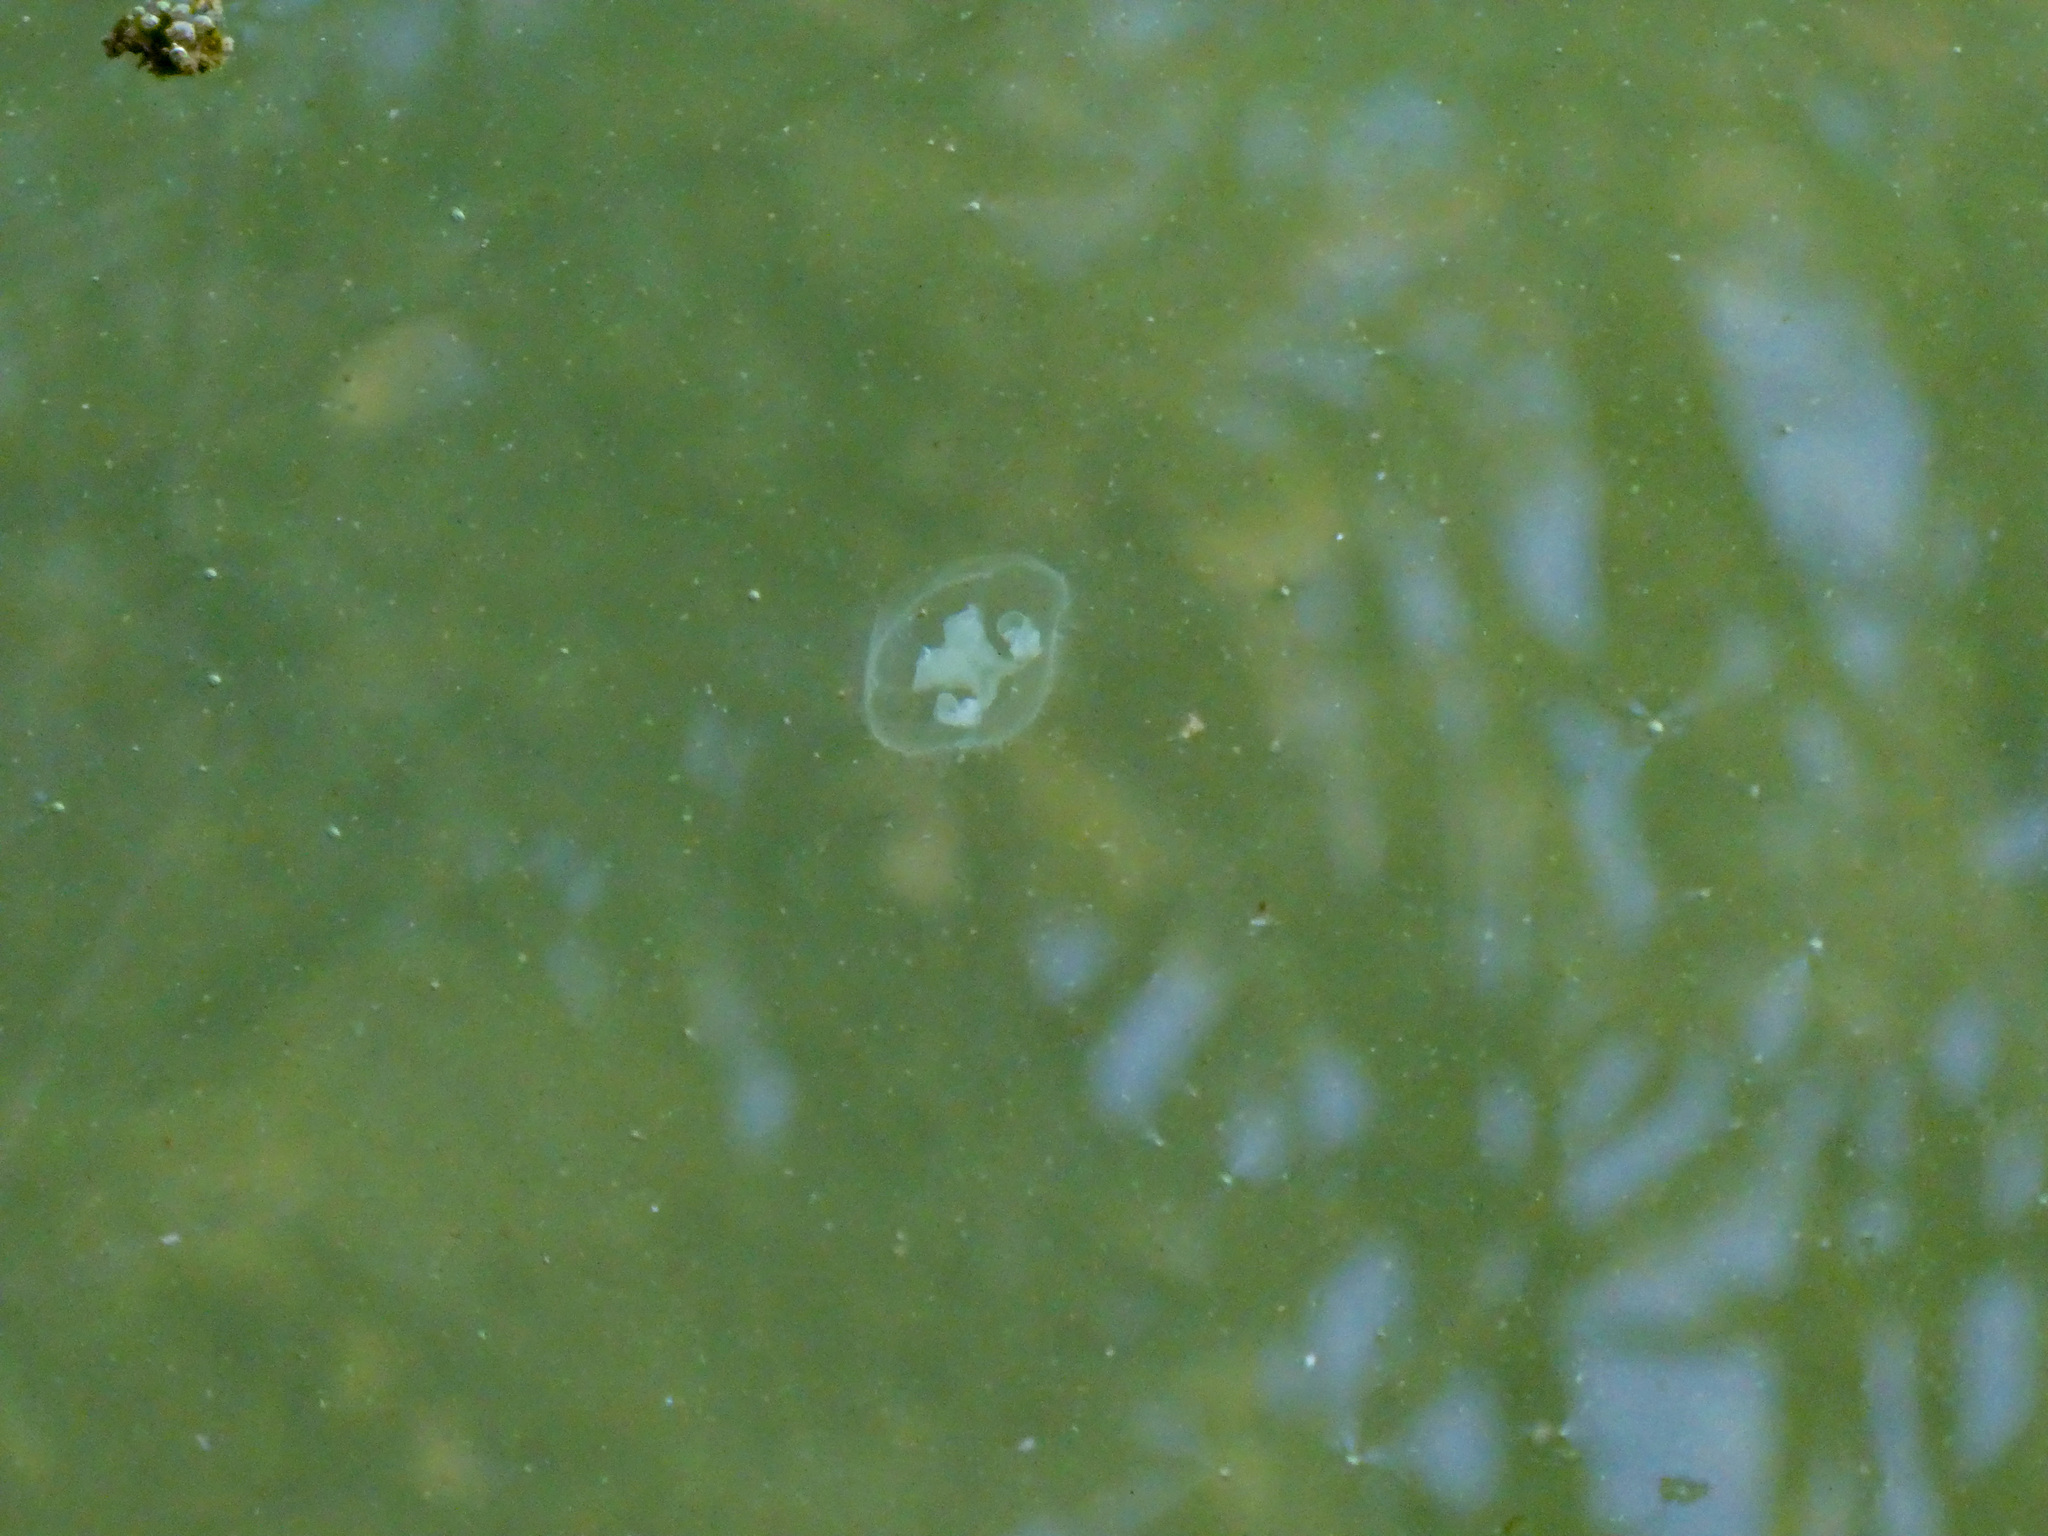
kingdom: Animalia
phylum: Cnidaria
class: Hydrozoa
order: Limnomedusae
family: Olindiidae
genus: Craspedacusta
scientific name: Craspedacusta sowerbii
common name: Freshwater jellyfish
